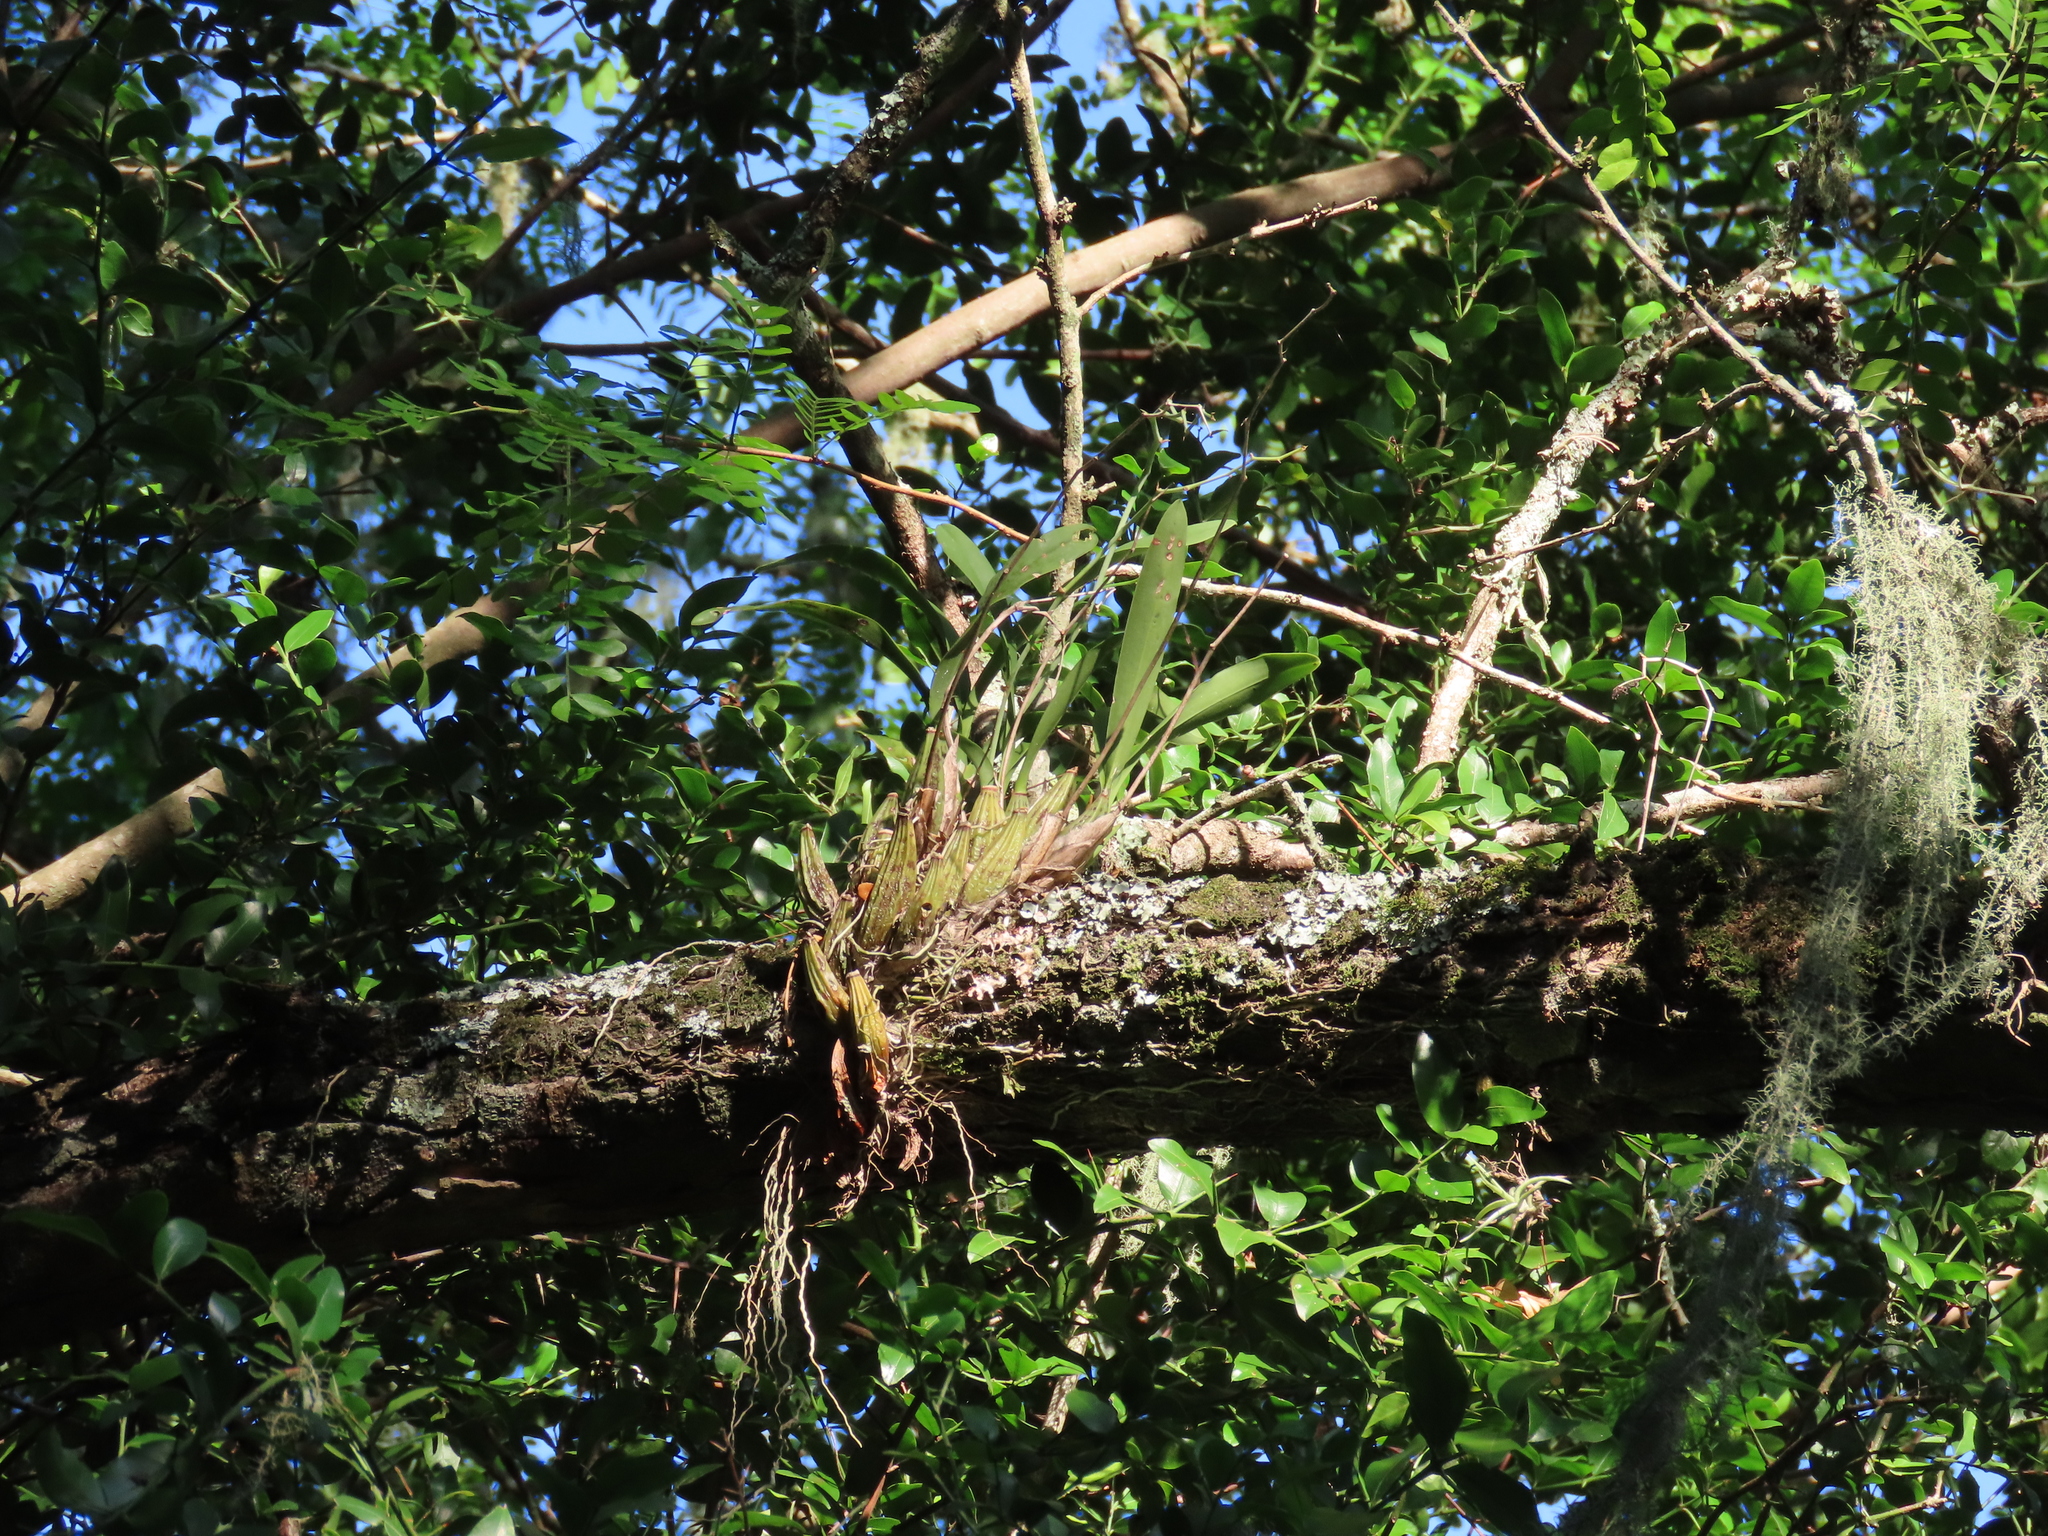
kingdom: Plantae
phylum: Tracheophyta
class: Liliopsida
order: Asparagales
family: Orchidaceae
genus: Gomesa
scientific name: Gomesa bifolia
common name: Dancing ladies
